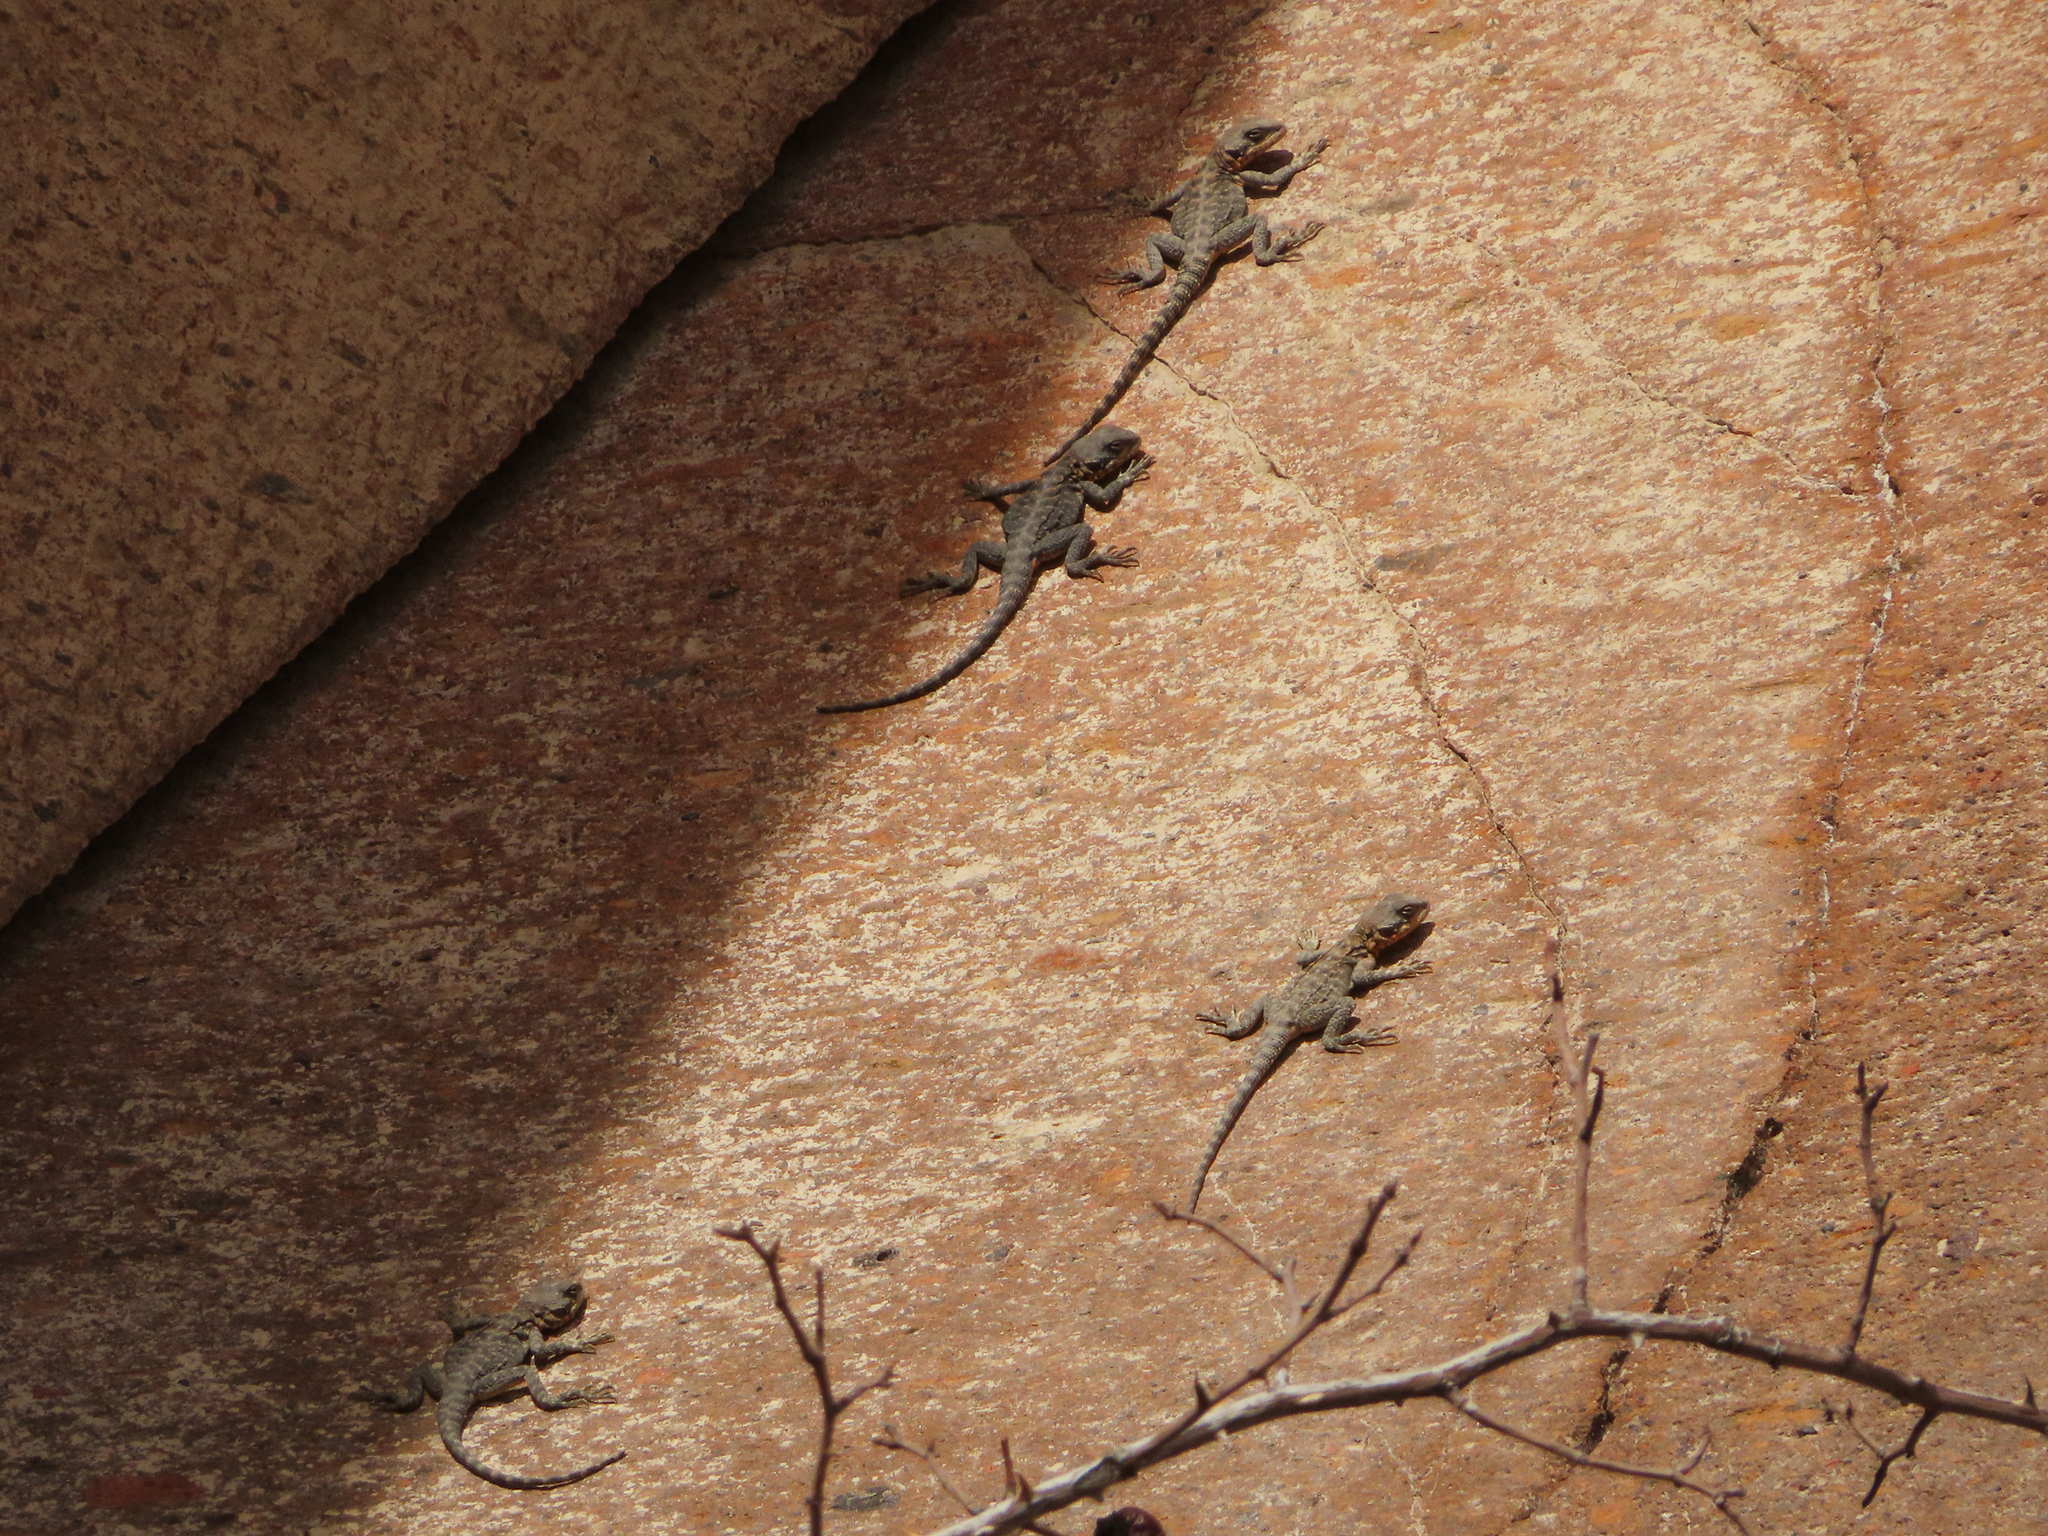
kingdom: Animalia
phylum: Chordata
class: Squamata
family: Agamidae
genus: Paralaudakia
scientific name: Paralaudakia caucasia
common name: Caucasian agama
